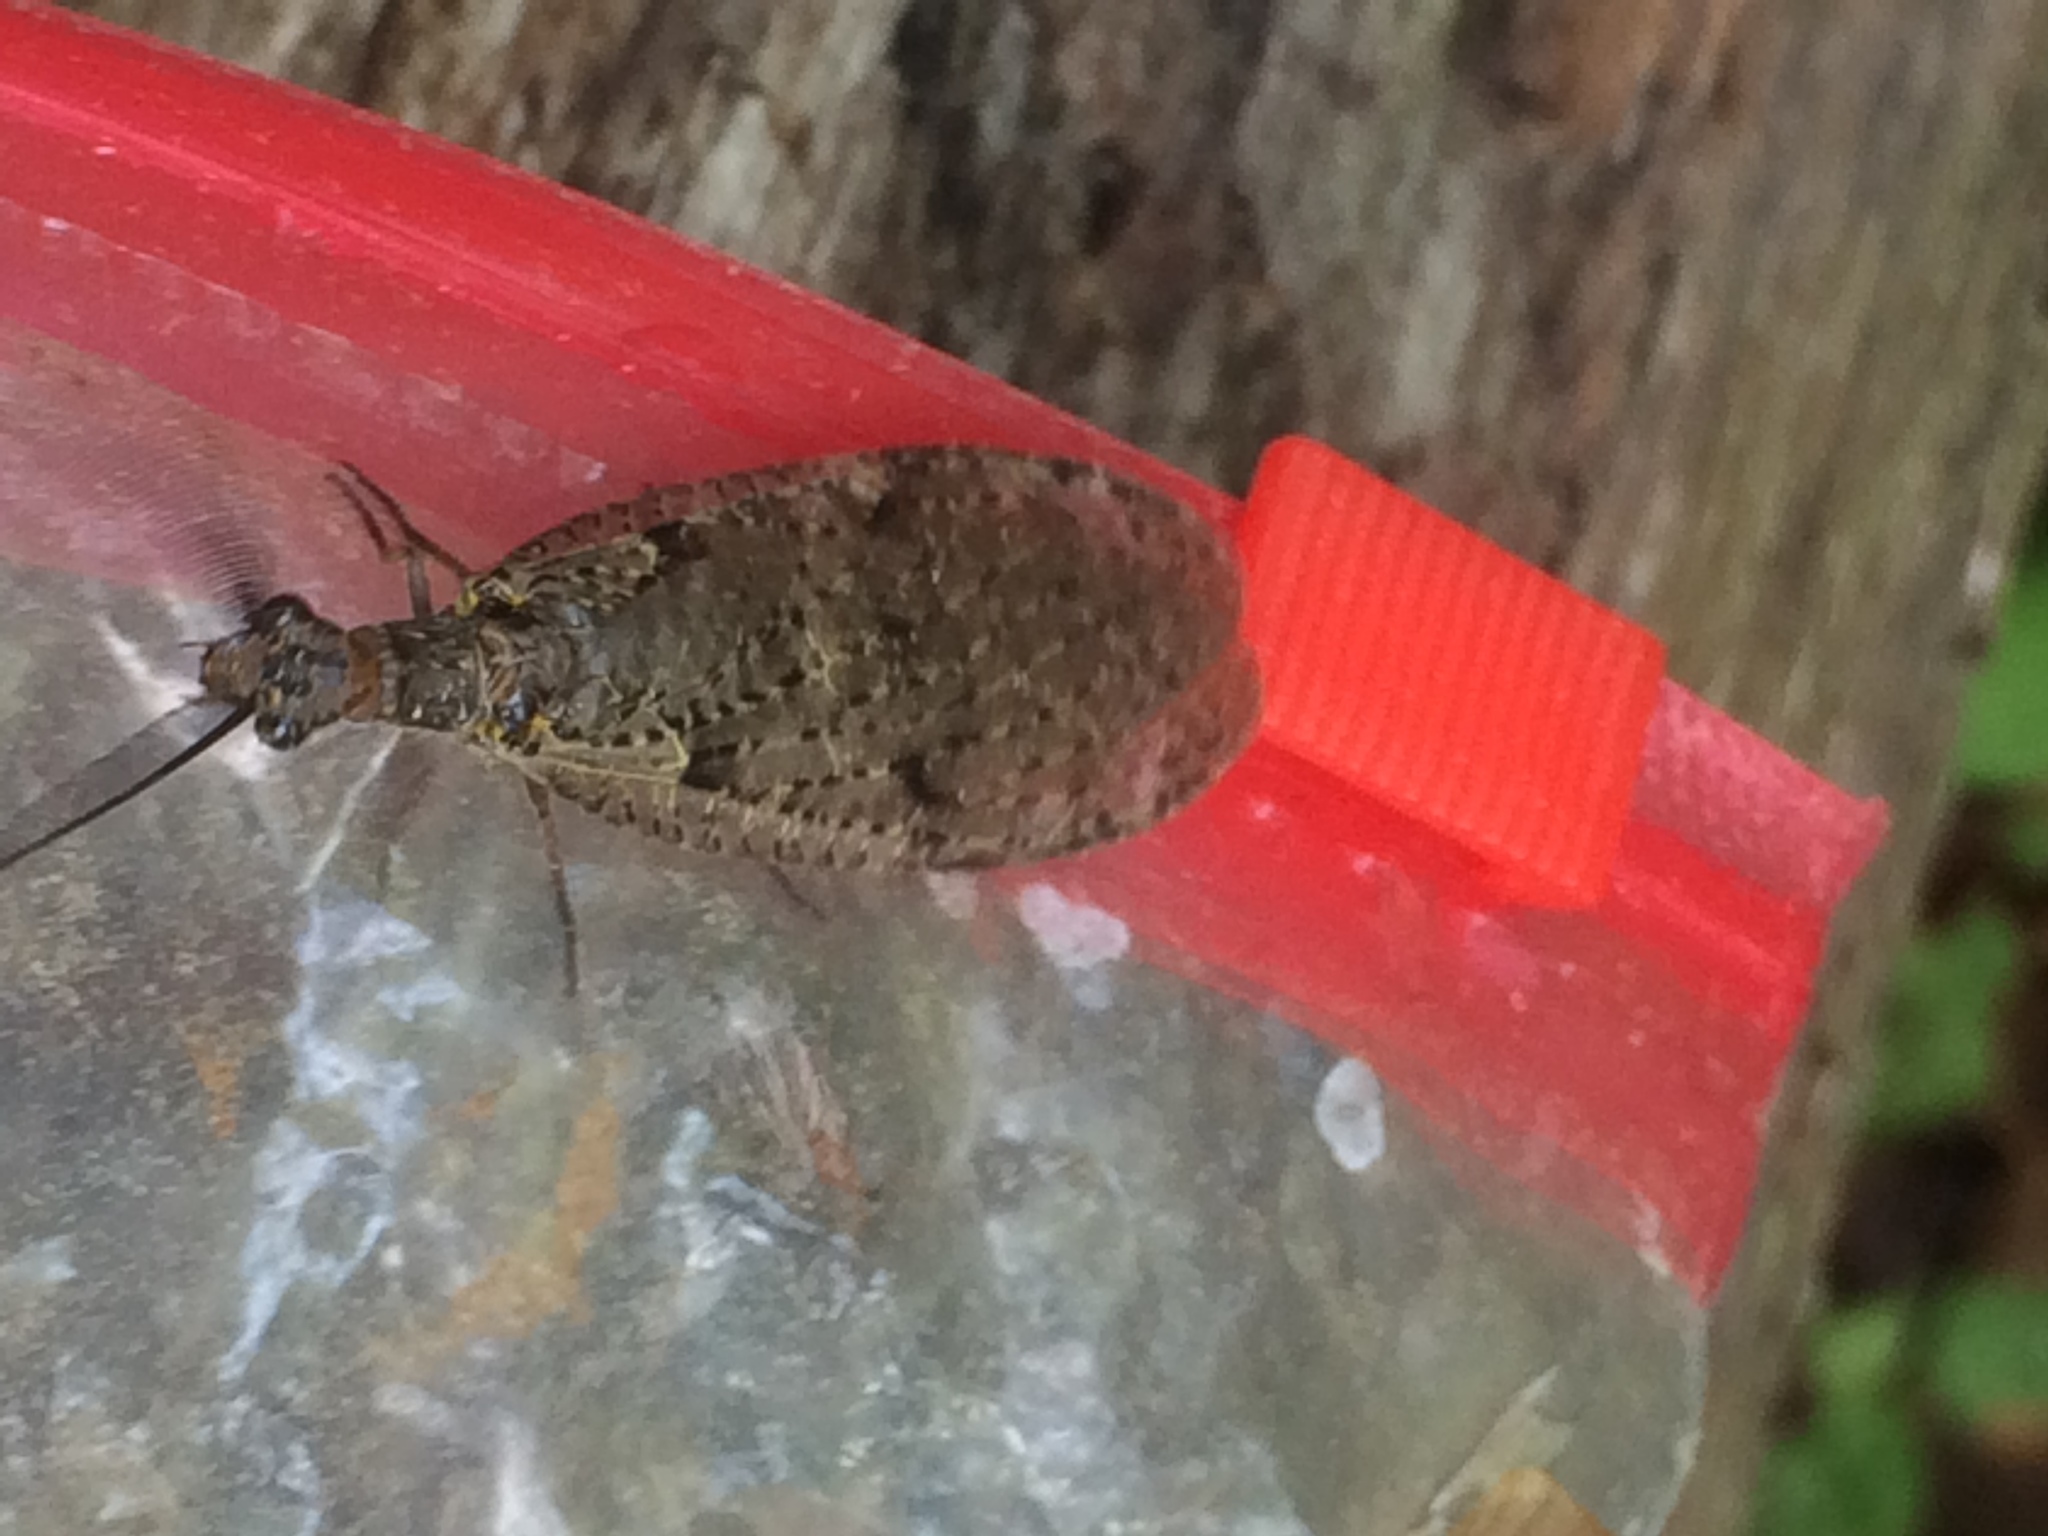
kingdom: Animalia
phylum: Arthropoda
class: Insecta
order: Megaloptera
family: Corydalidae
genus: Chauliodes
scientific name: Chauliodes rastricornis
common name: Spring fishfly
